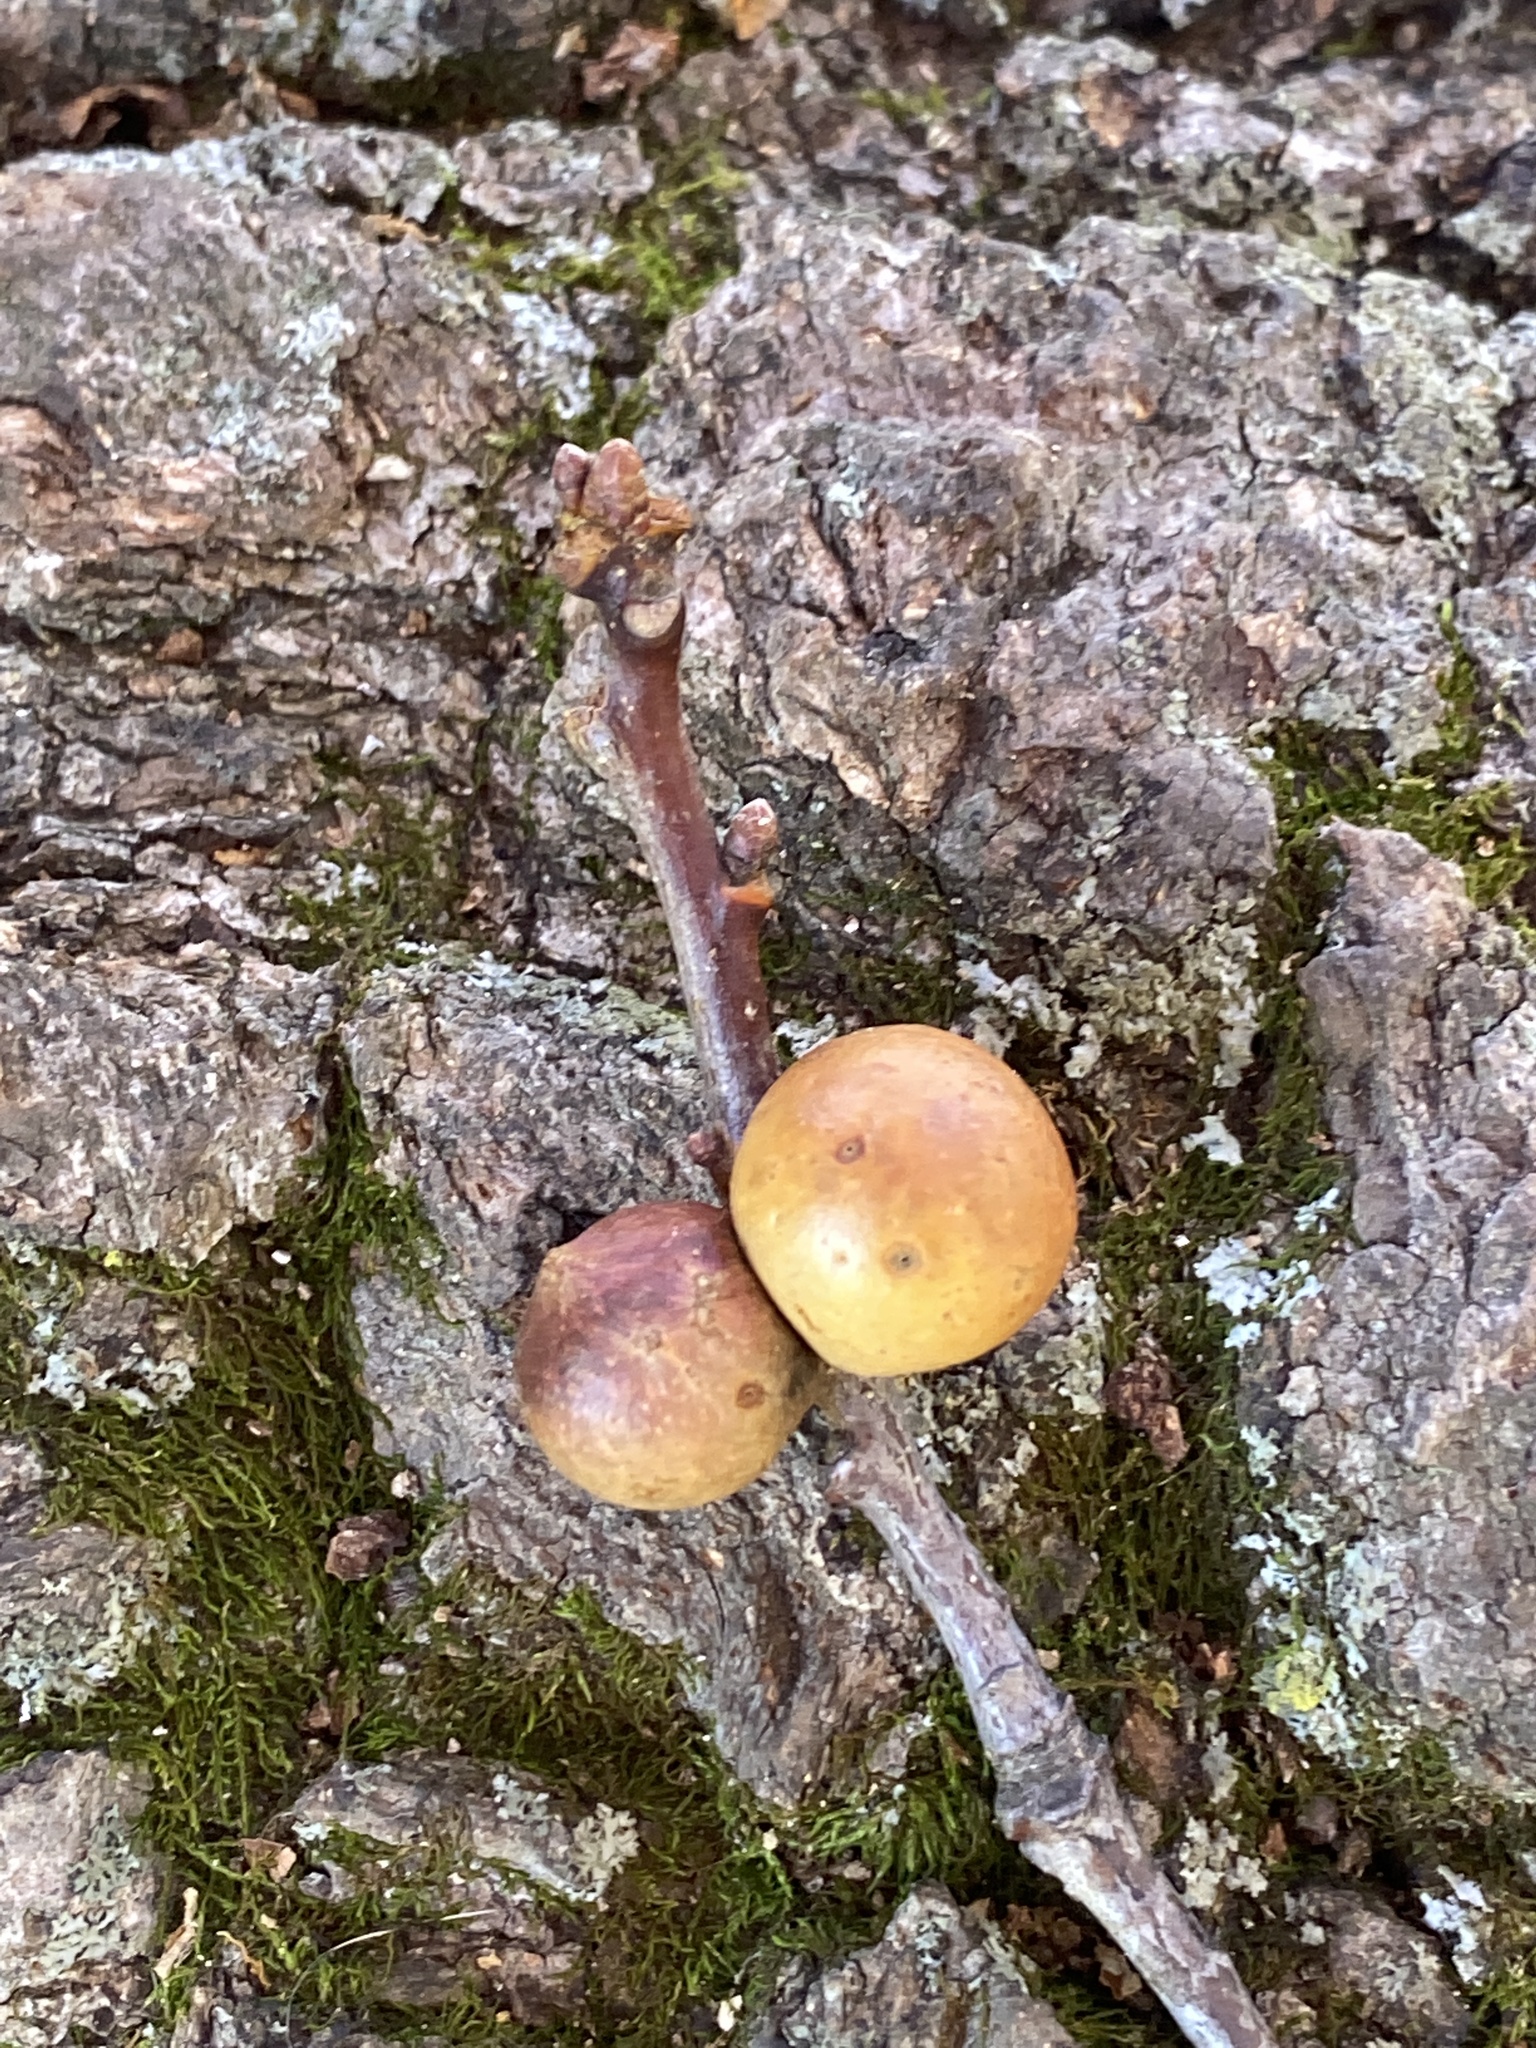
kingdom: Animalia
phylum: Arthropoda
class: Insecta
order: Hymenoptera
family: Cynipidae
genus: Disholcaspis
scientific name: Disholcaspis quercusglobulus
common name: Round bullet gall wasp
